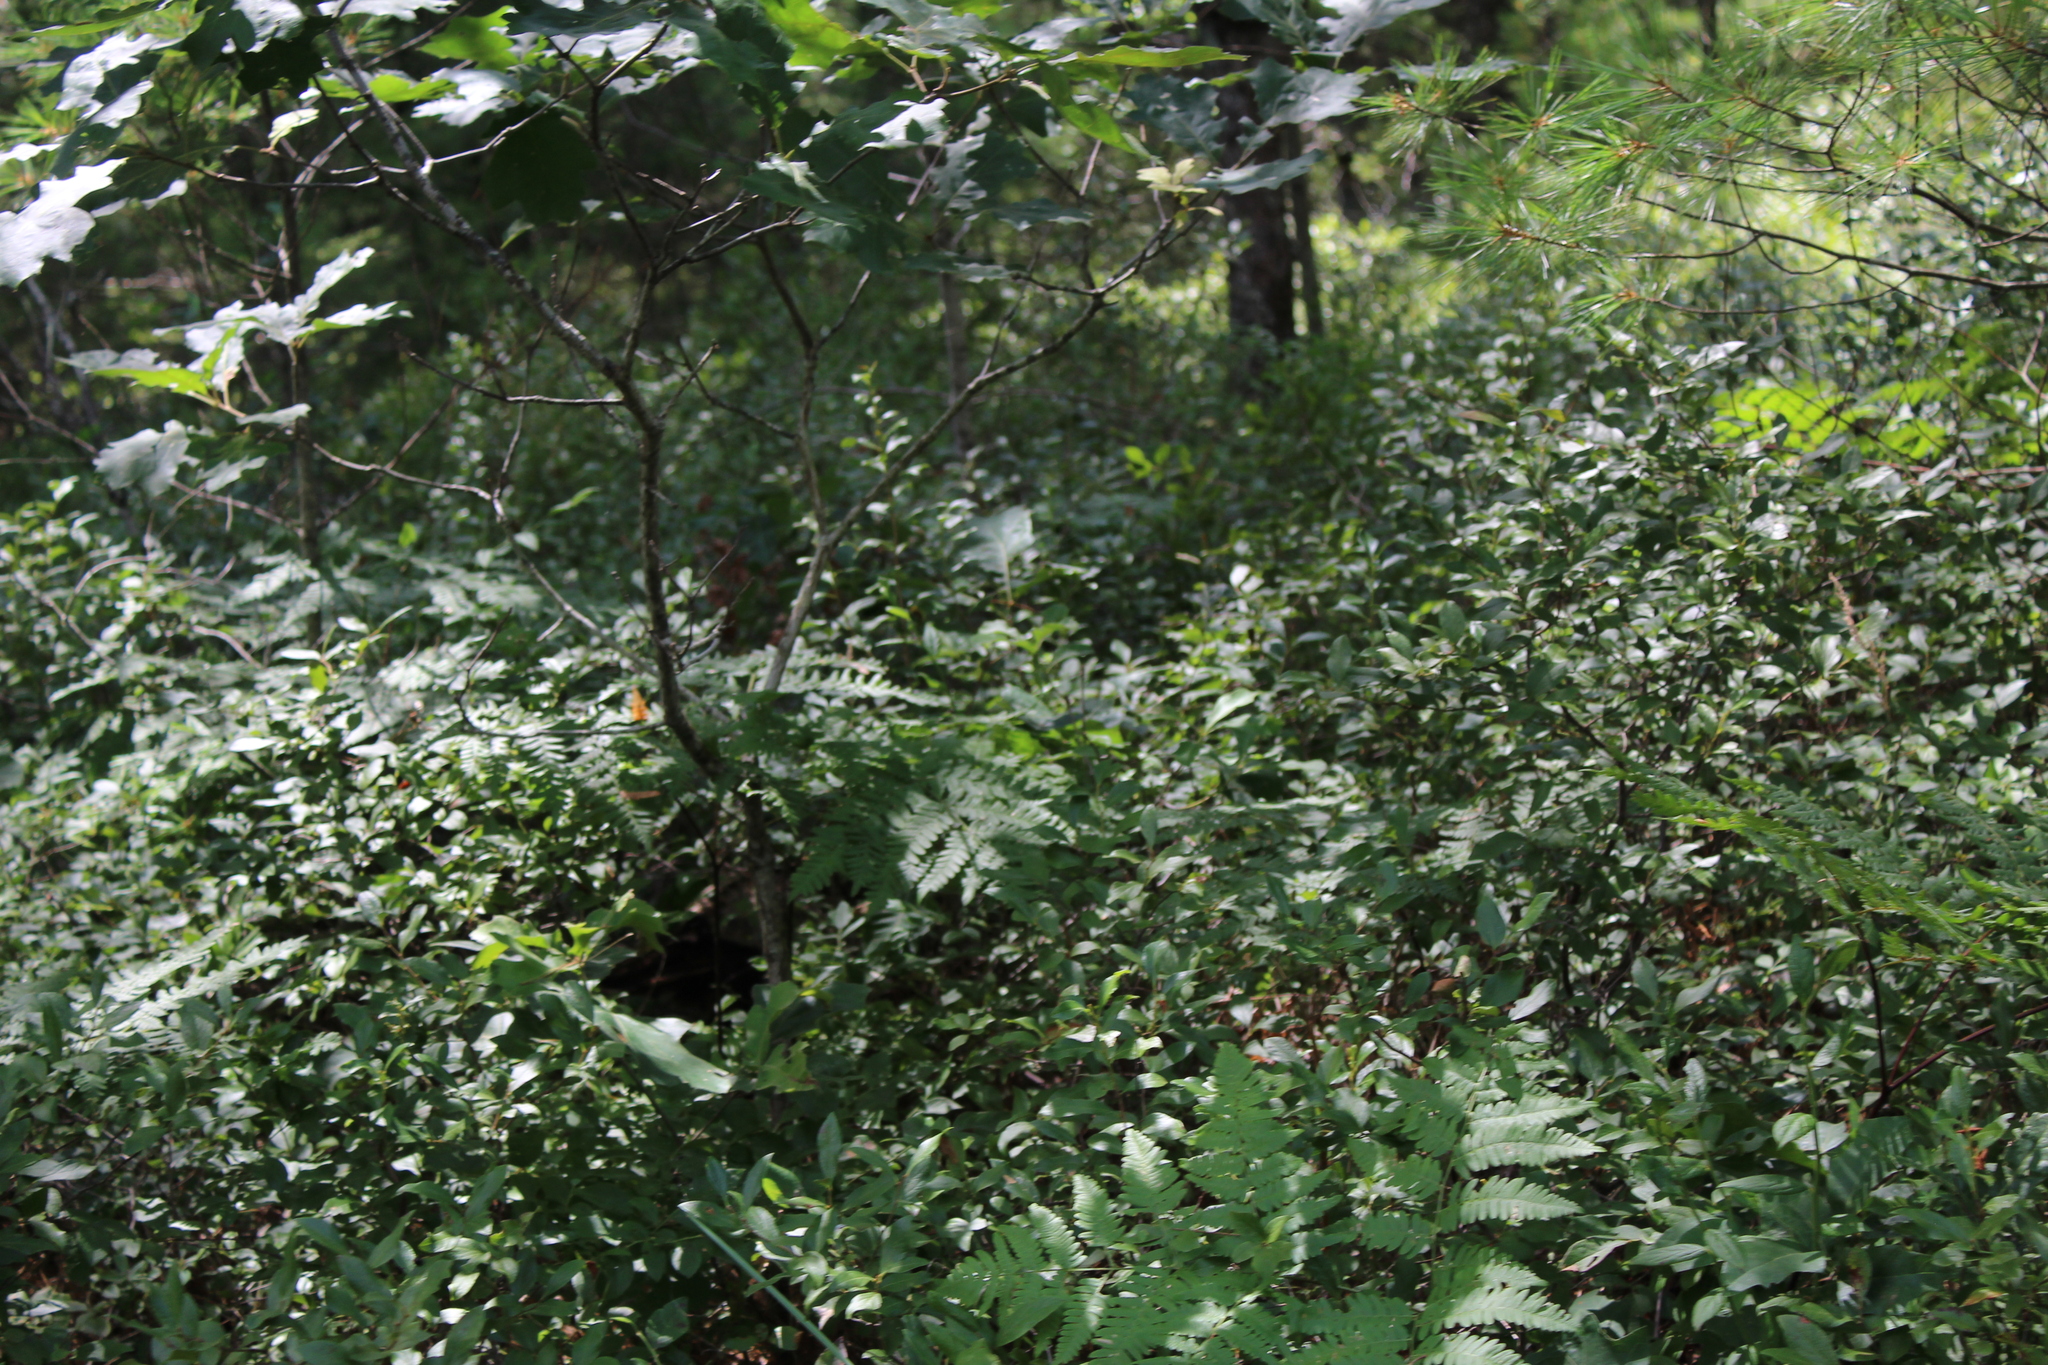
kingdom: Plantae
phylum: Tracheophyta
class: Polypodiopsida
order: Polypodiales
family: Dennstaedtiaceae
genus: Pteridium
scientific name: Pteridium aquilinum
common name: Bracken
